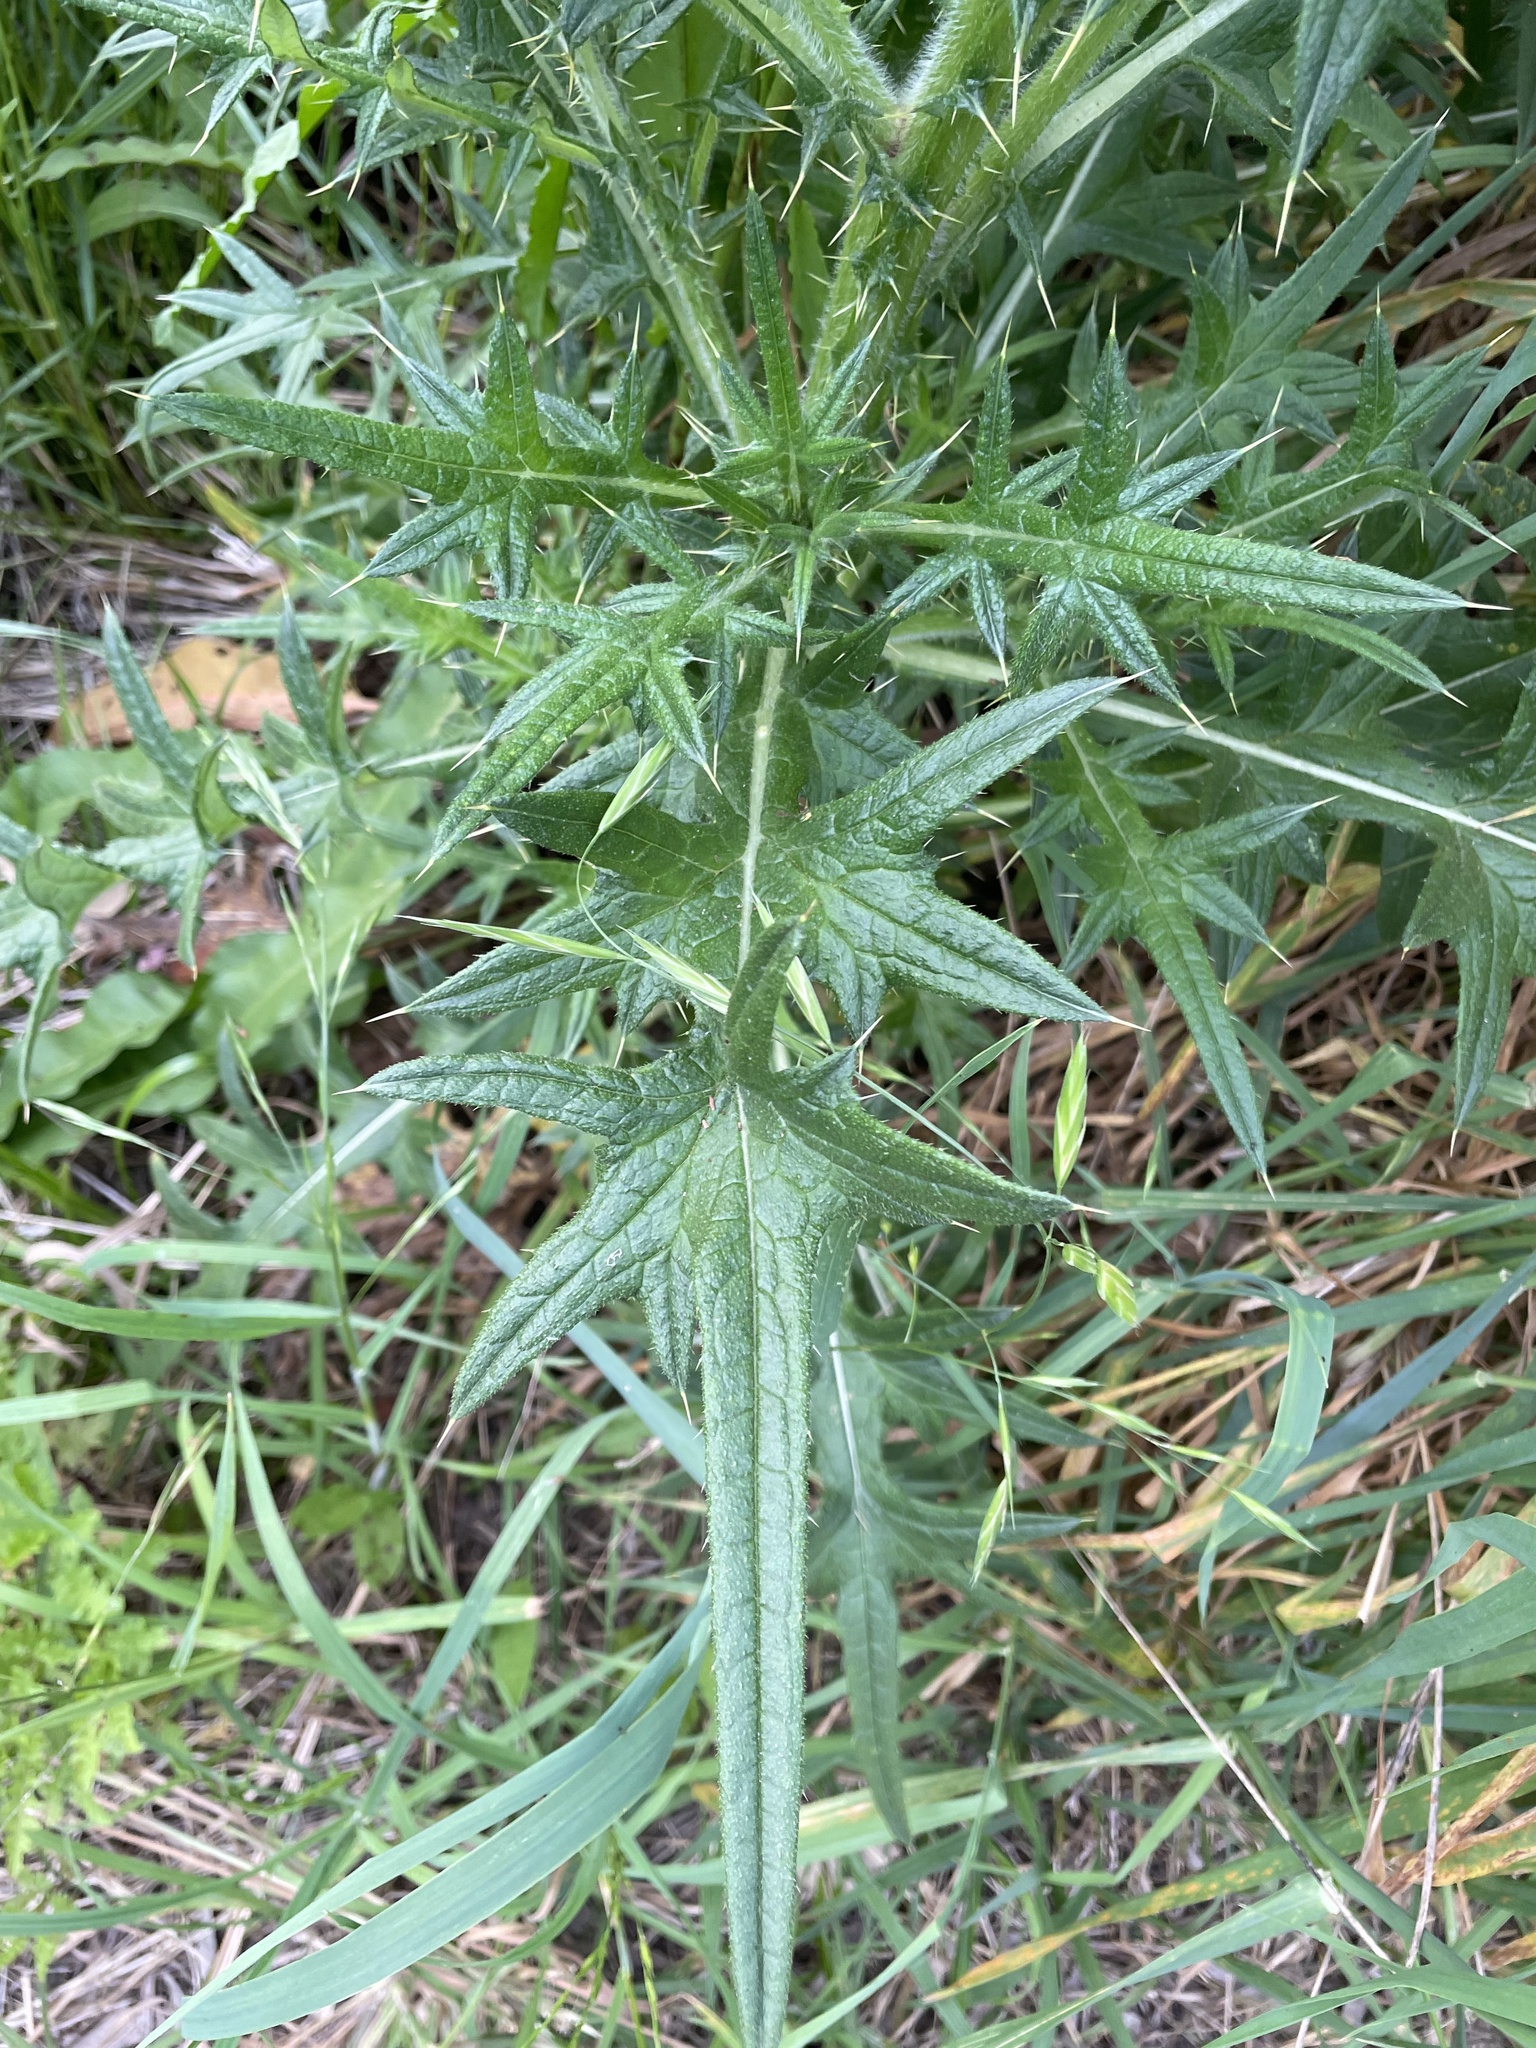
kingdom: Plantae
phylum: Tracheophyta
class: Magnoliopsida
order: Asterales
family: Asteraceae
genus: Cirsium
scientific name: Cirsium vulgare
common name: Bull thistle
